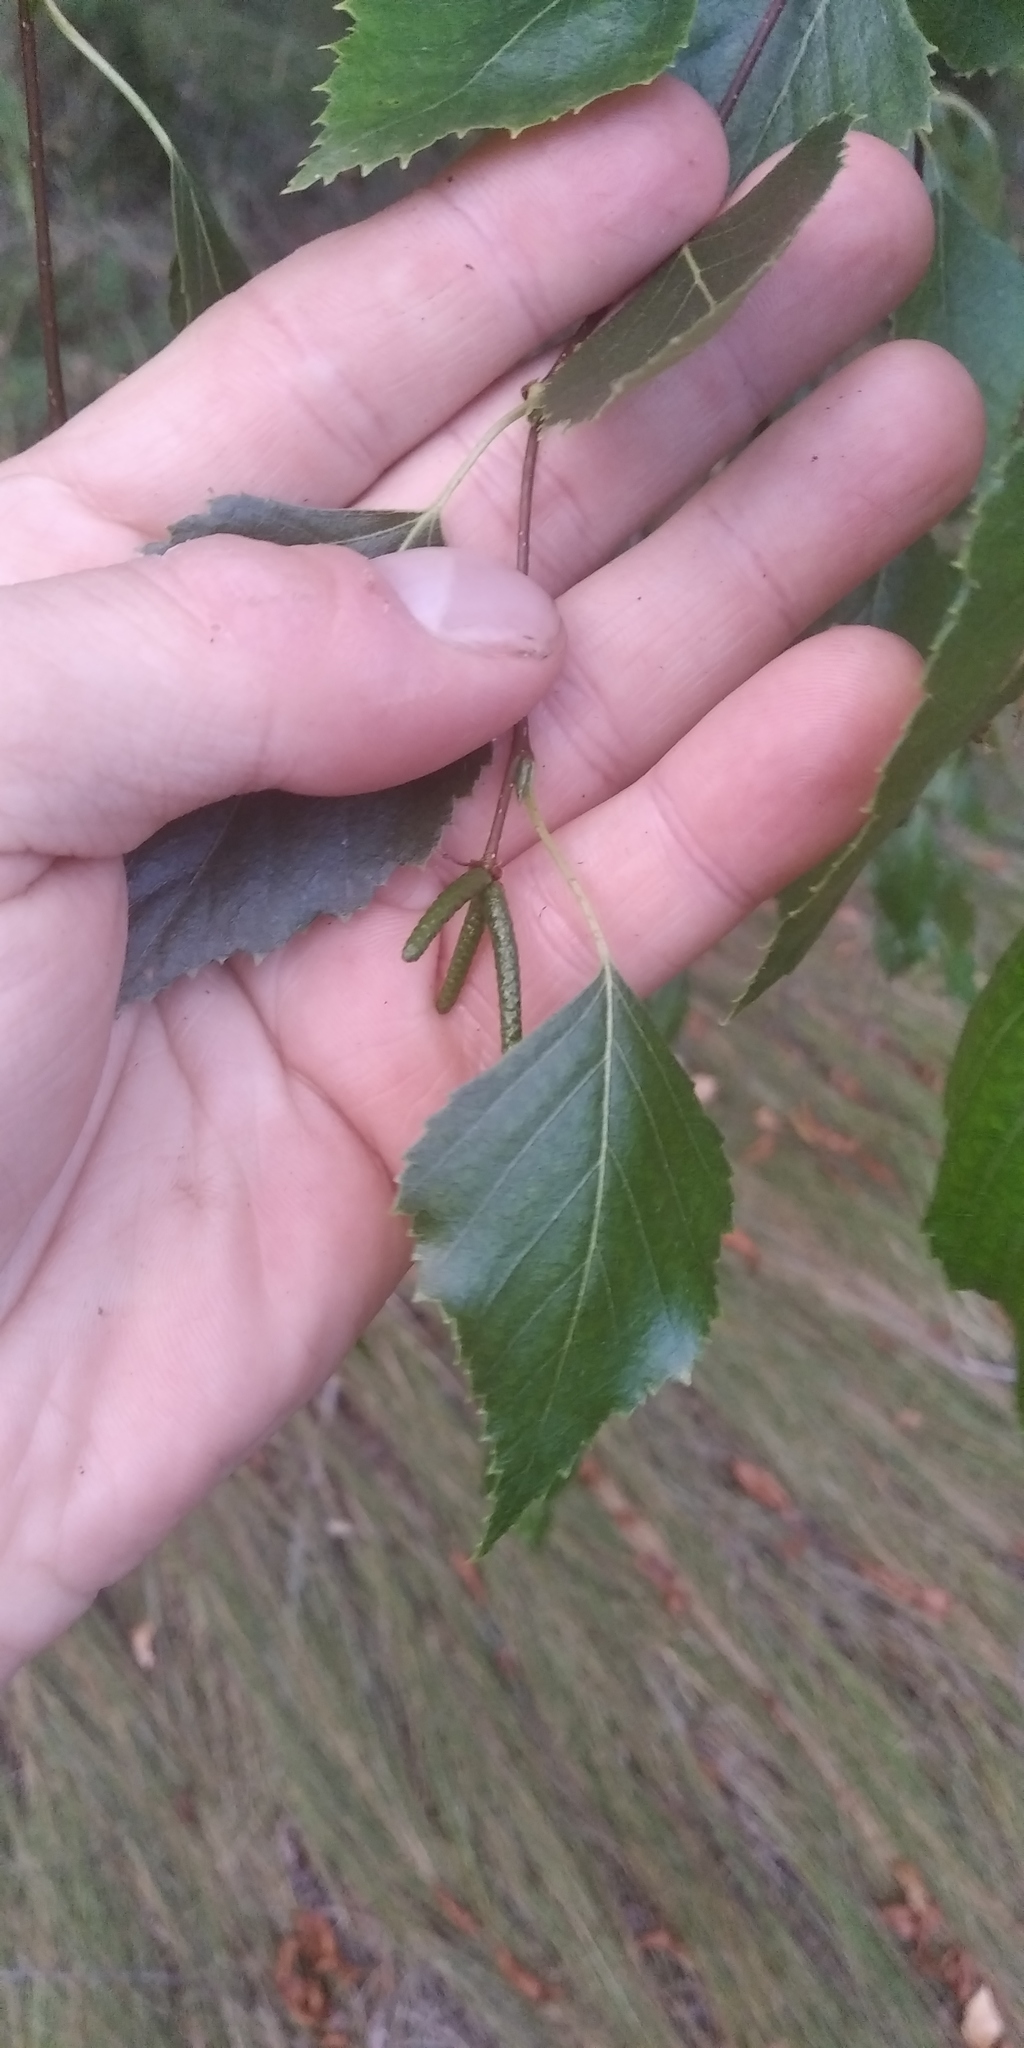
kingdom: Plantae
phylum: Tracheophyta
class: Magnoliopsida
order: Fagales
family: Betulaceae
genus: Betula
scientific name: Betula pendula
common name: Silver birch
